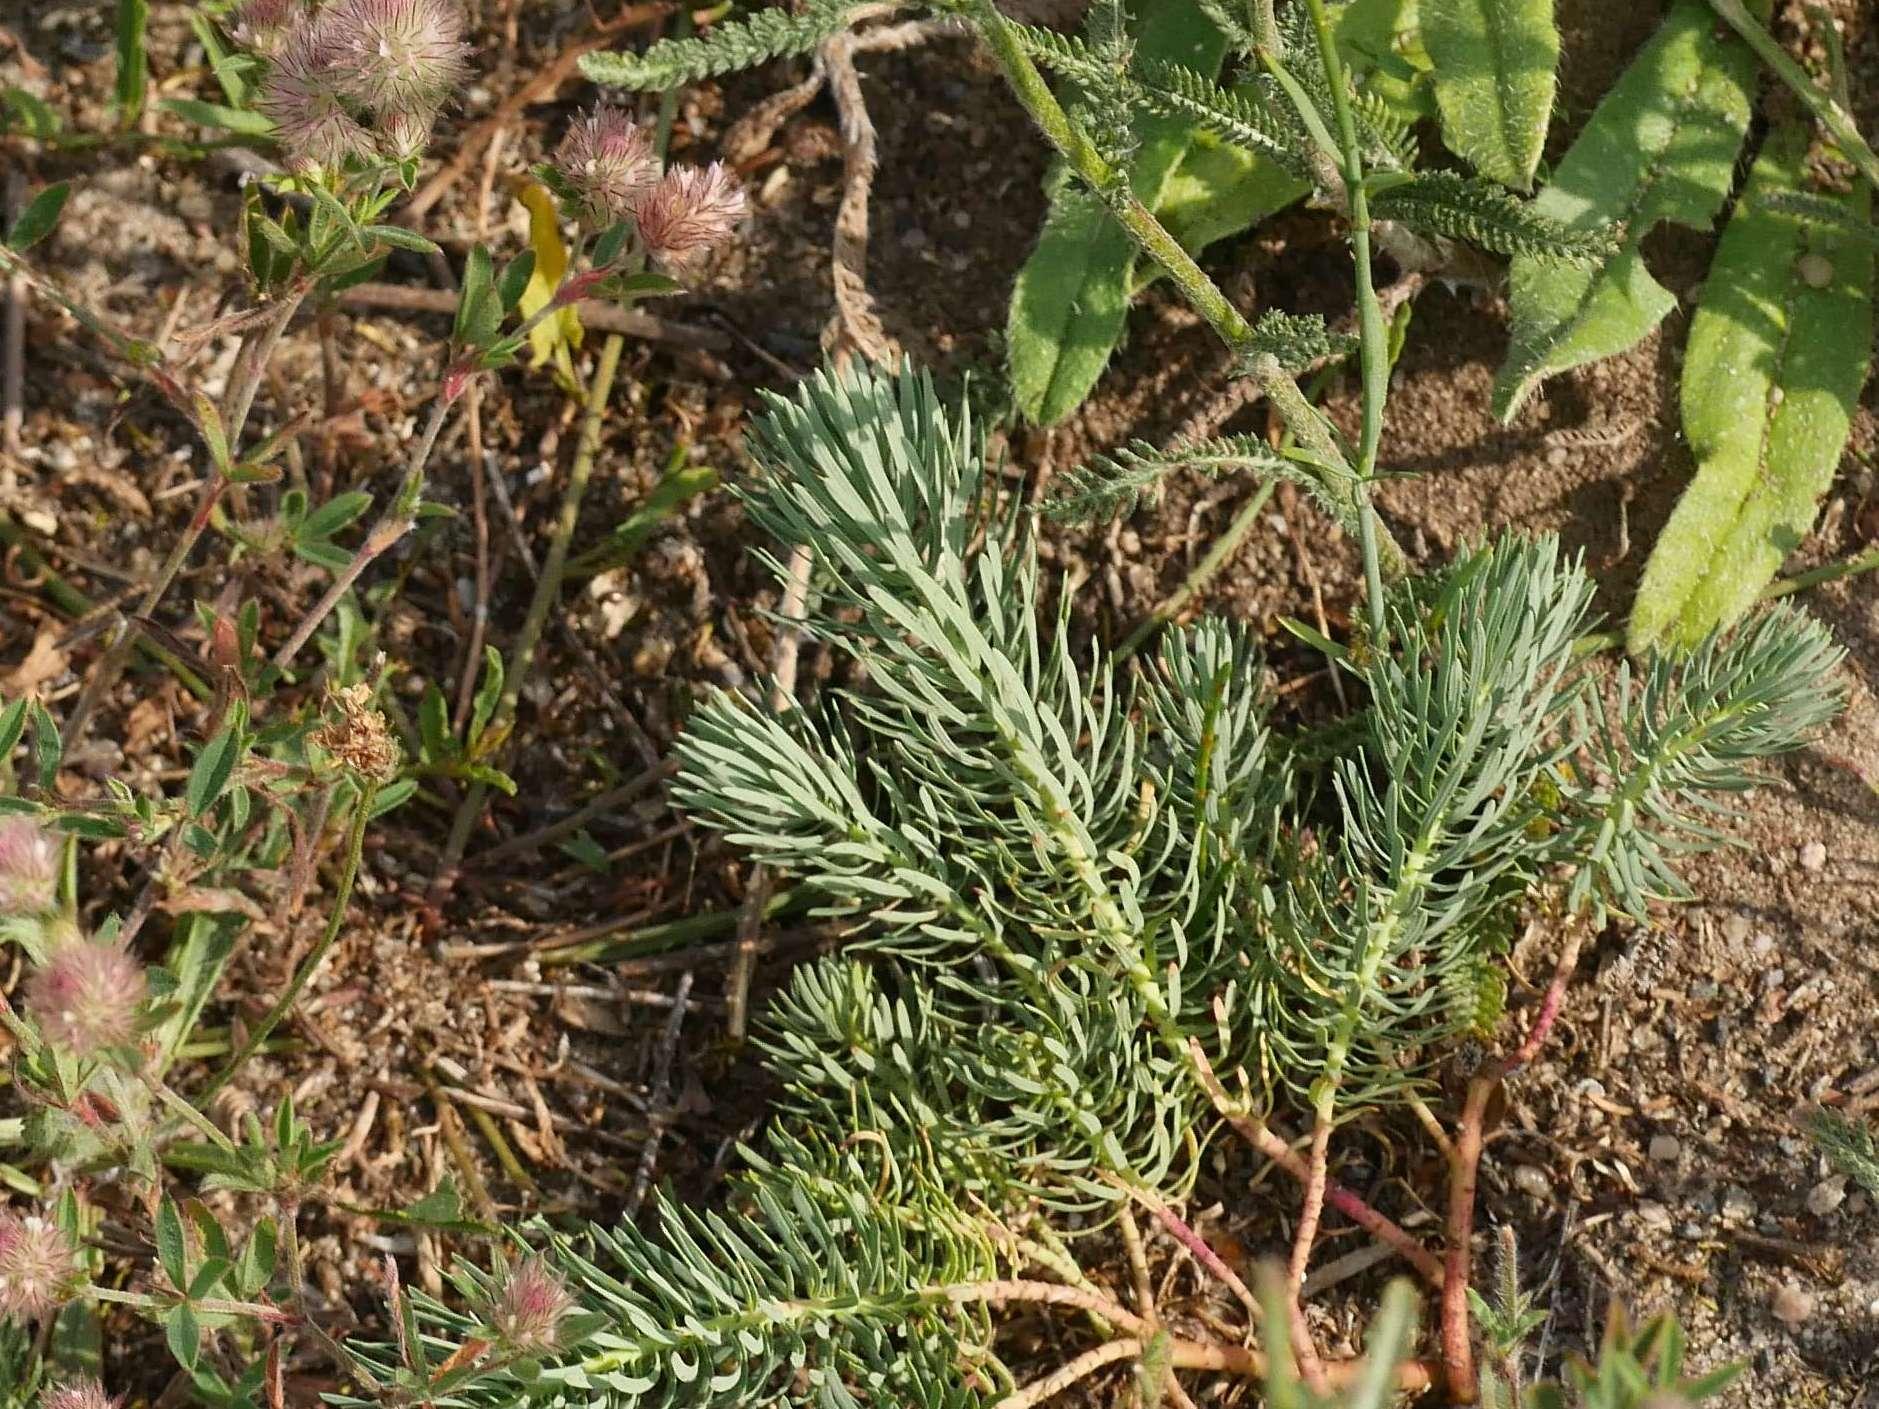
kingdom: Plantae
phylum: Tracheophyta
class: Magnoliopsida
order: Malpighiales
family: Euphorbiaceae
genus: Euphorbia
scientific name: Euphorbia cyparissias
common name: Cypress spurge
